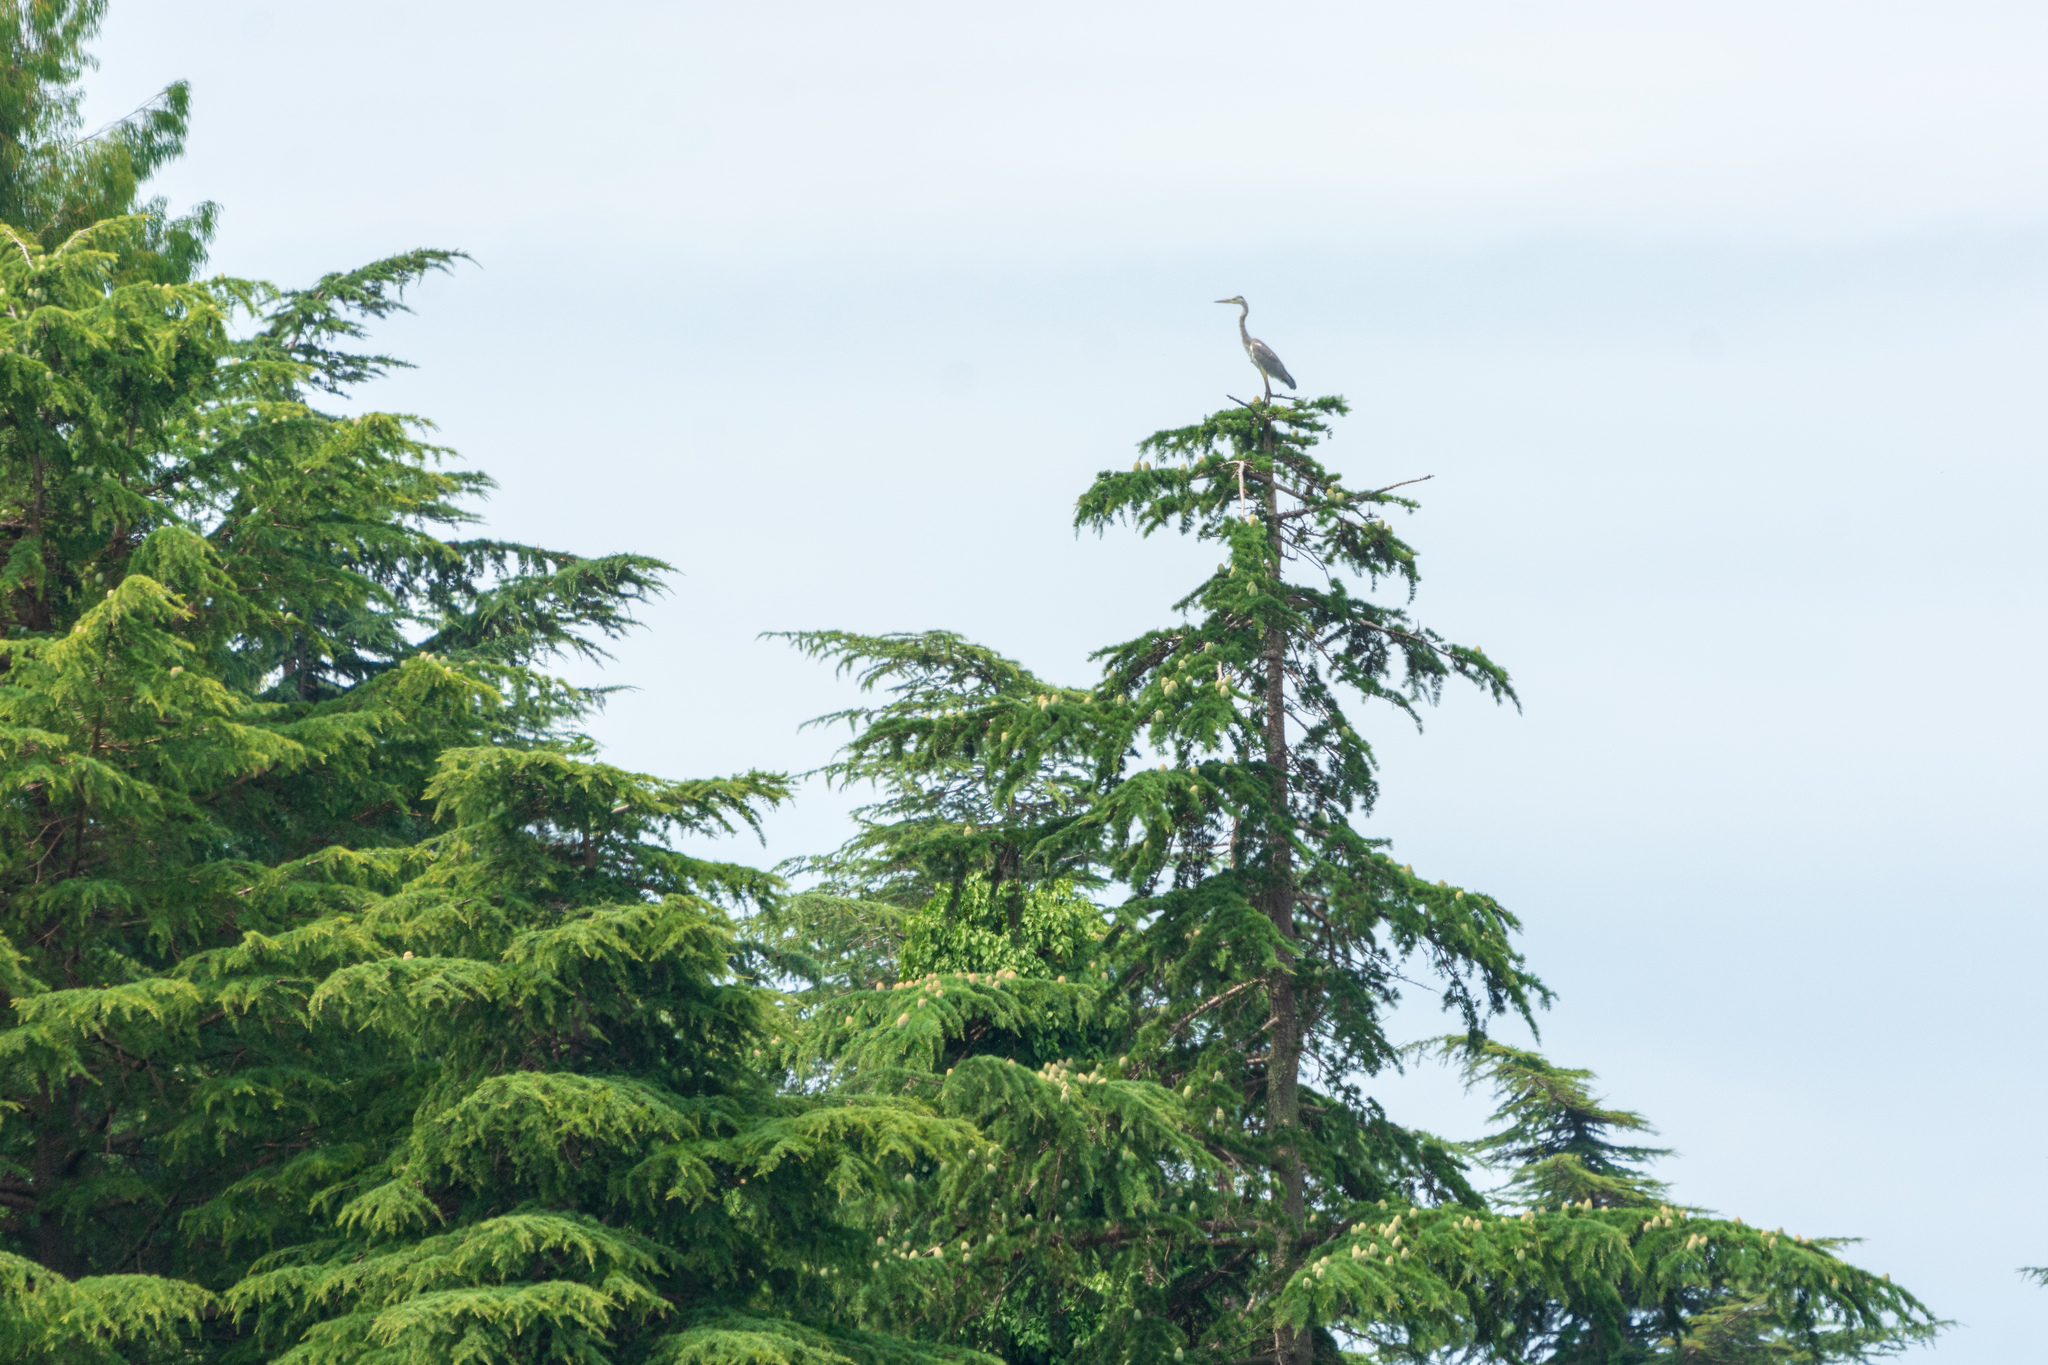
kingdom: Animalia
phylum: Chordata
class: Aves
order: Pelecaniformes
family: Ardeidae
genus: Ardea
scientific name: Ardea cinerea
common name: Grey heron
